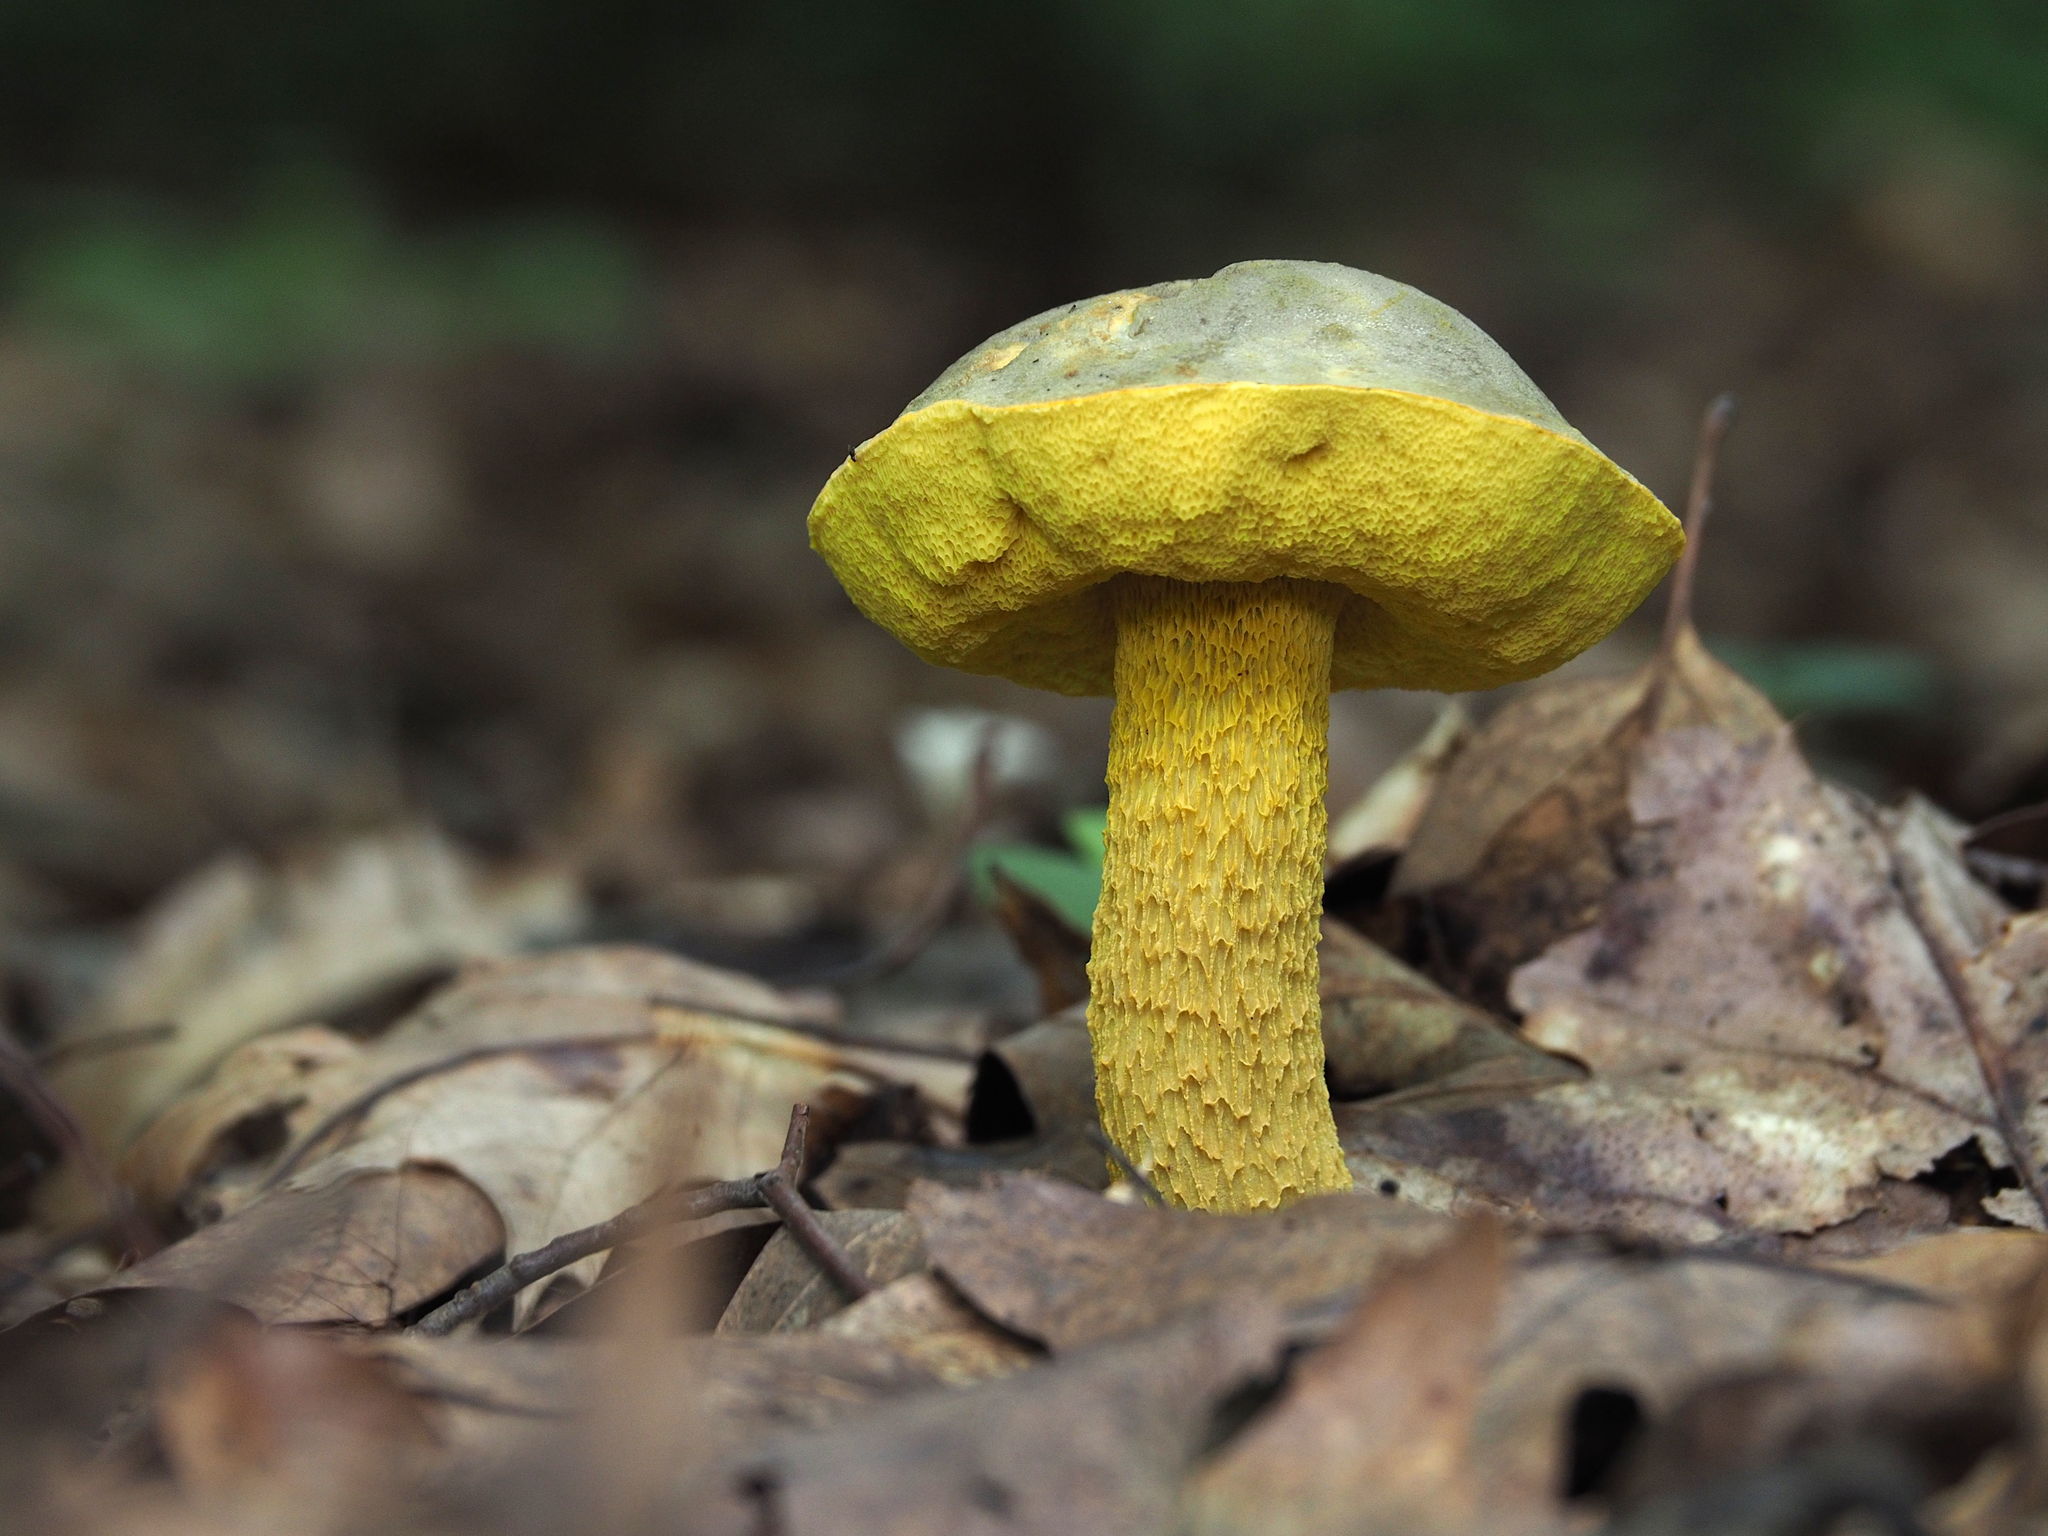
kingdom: Fungi
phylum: Basidiomycota
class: Agaricomycetes
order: Boletales
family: Boletaceae
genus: Retiboletus
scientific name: Retiboletus ornatipes
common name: Ornate-stalked bolete
